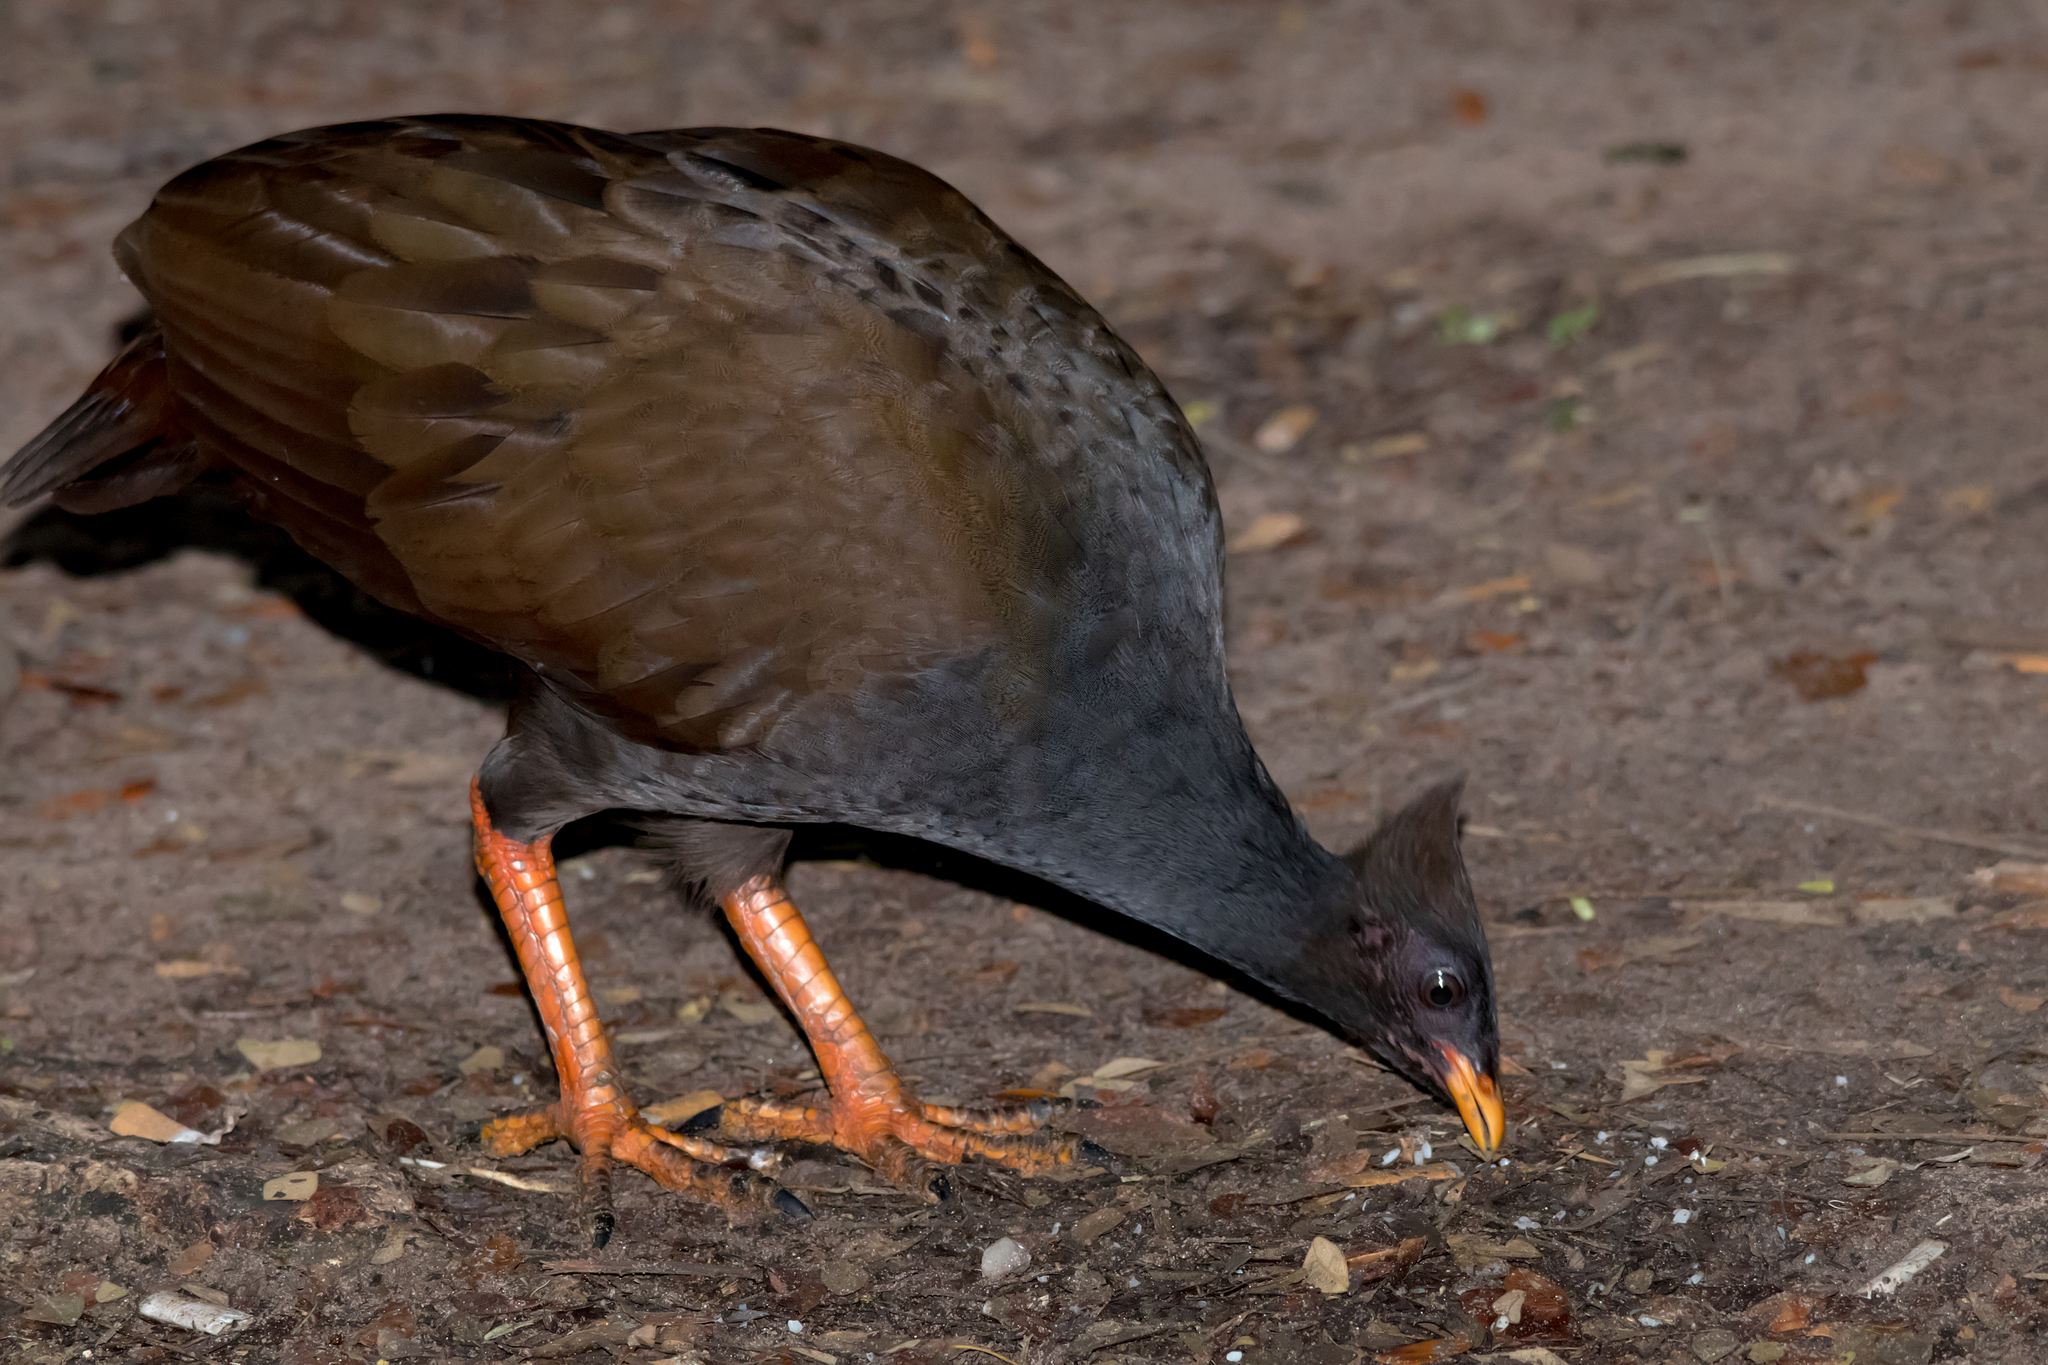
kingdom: Animalia
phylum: Chordata
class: Aves
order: Galliformes
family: Megapodiidae
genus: Megapodius
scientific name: Megapodius reinwardt
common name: Orange-footed scrubfowl
